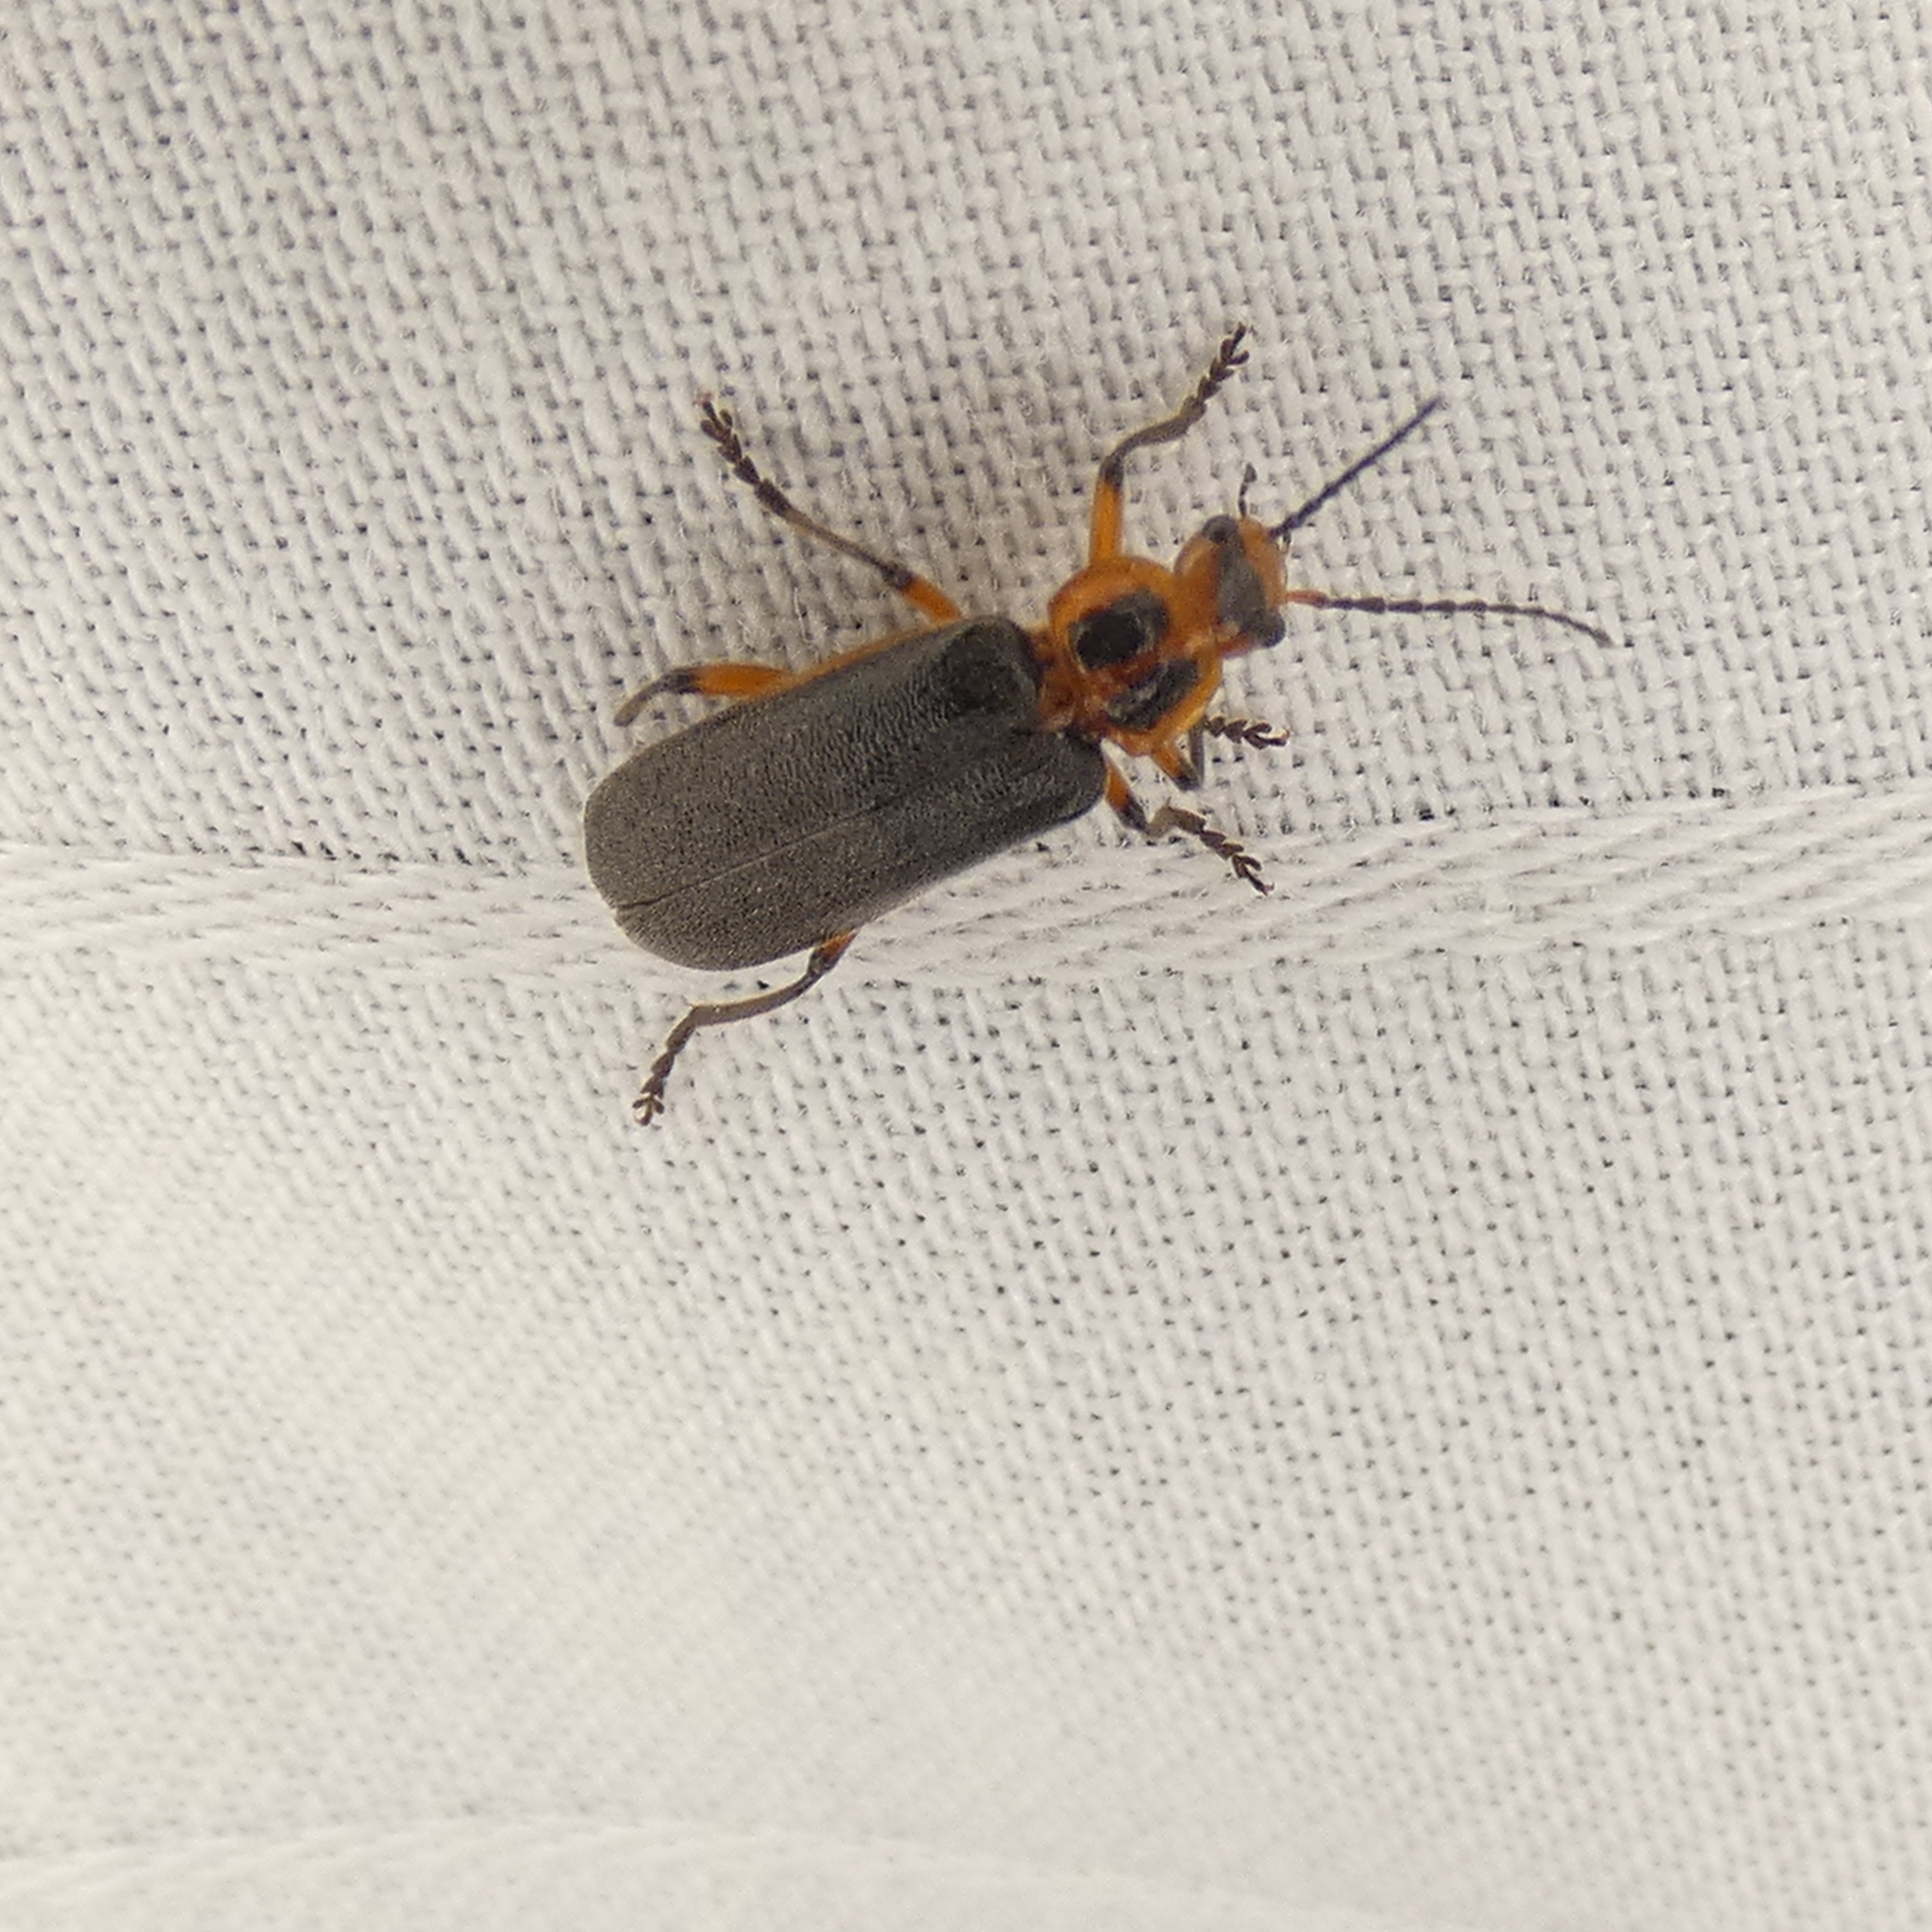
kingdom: Animalia
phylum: Arthropoda
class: Insecta
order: Coleoptera
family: Cantharidae
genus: Atalantycha
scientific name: Atalantycha bilineata
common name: Two-lined leatherwing
